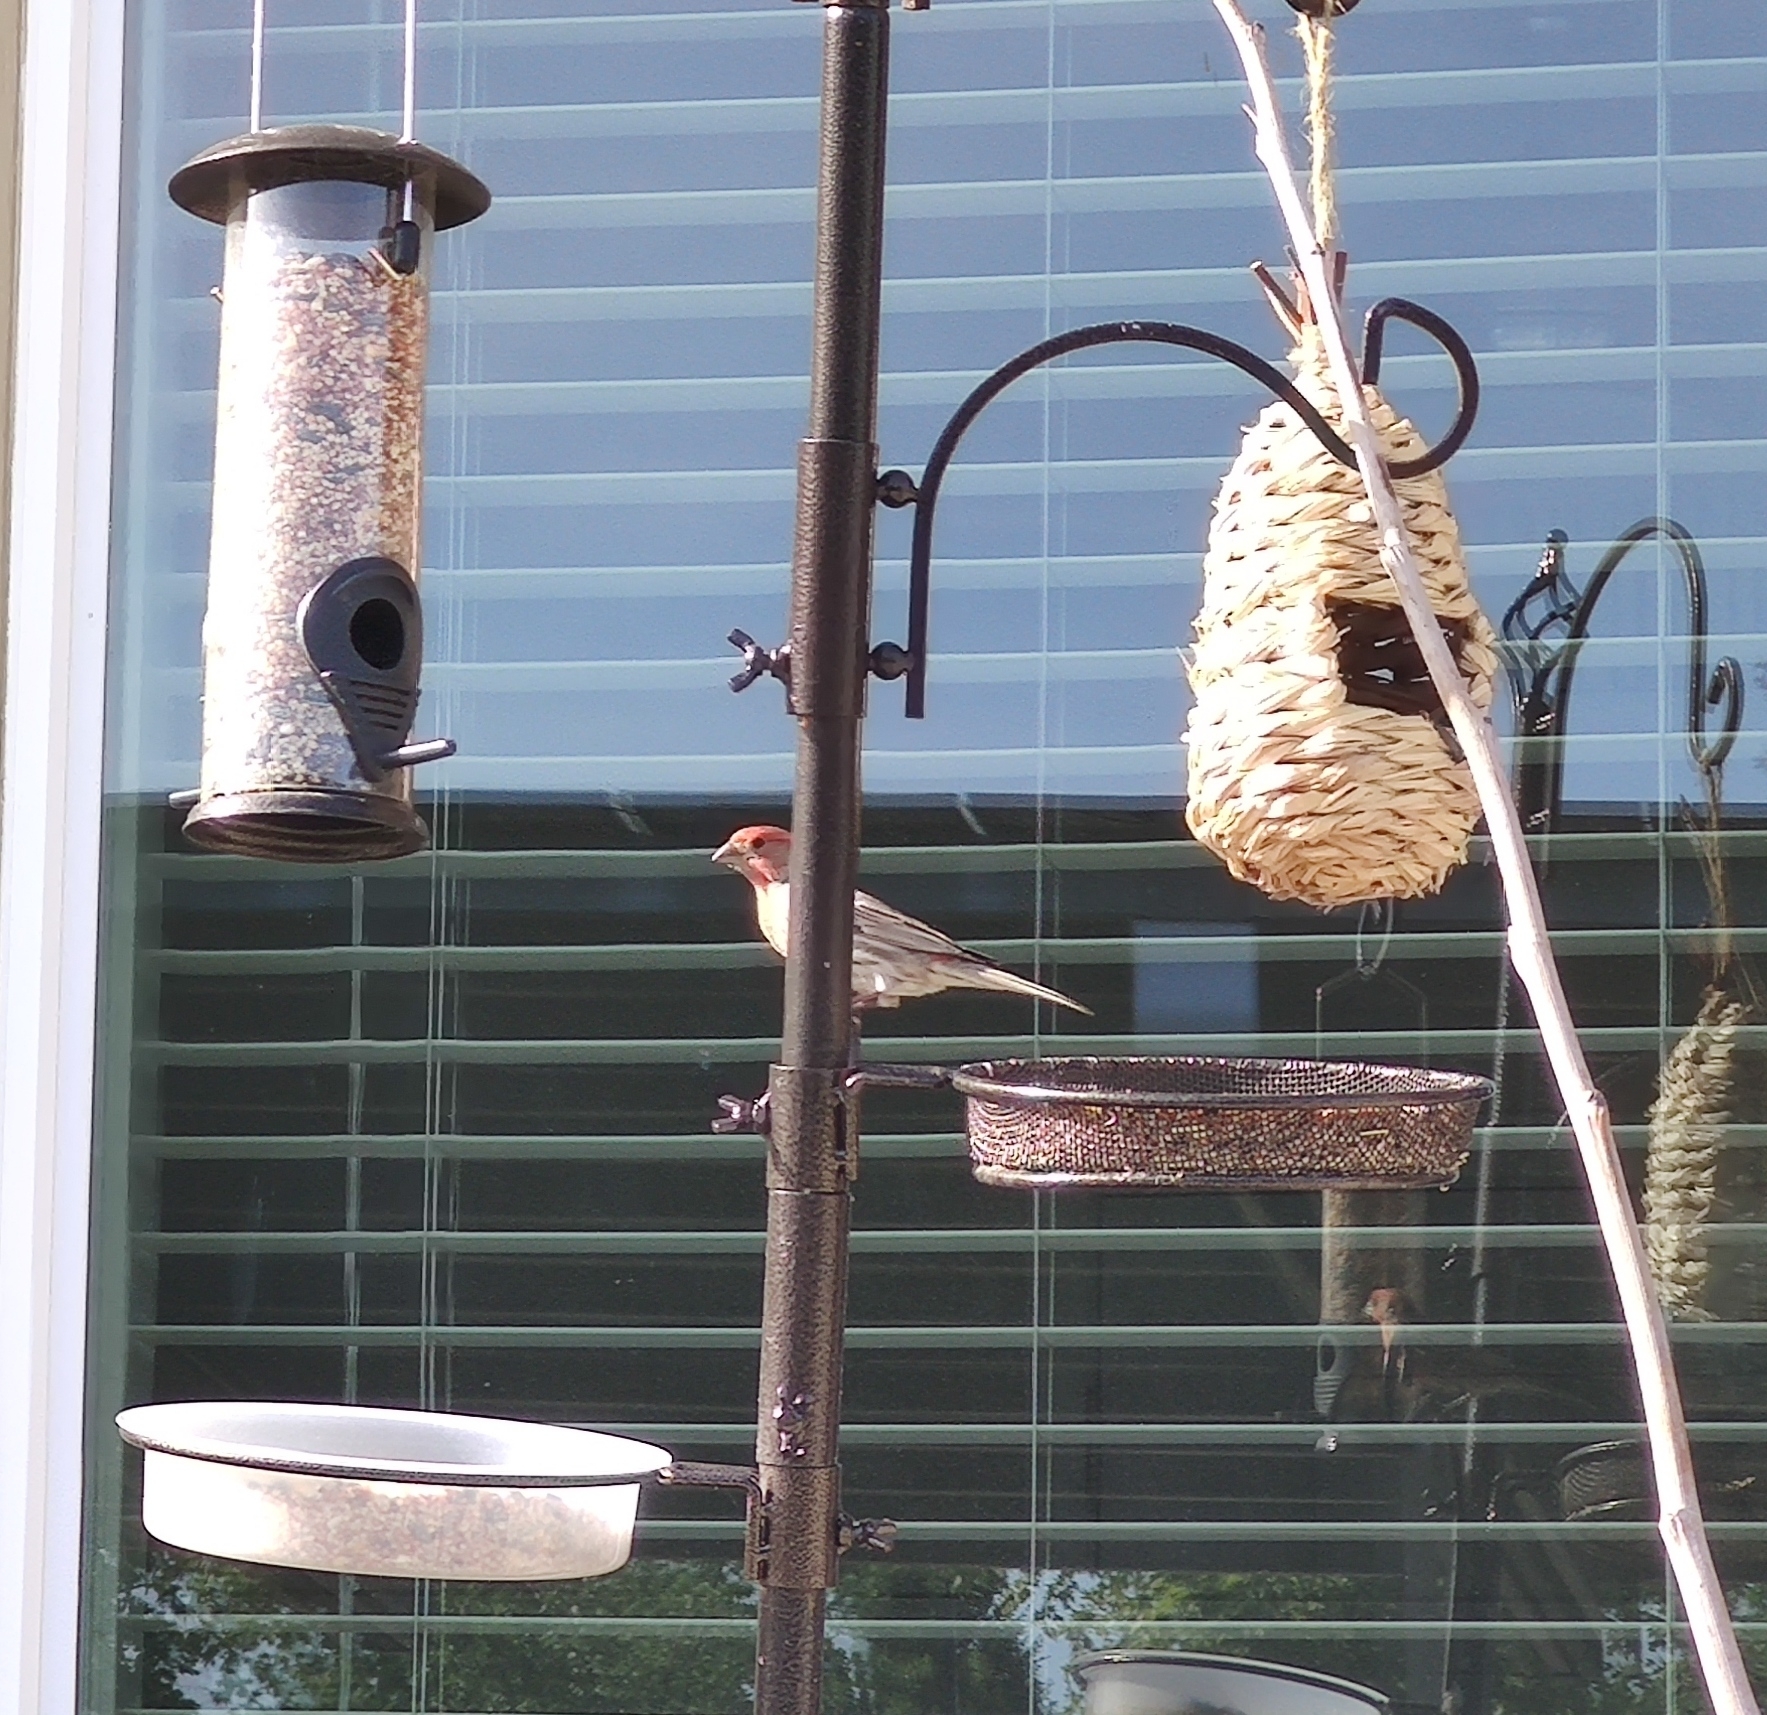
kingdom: Animalia
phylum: Chordata
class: Aves
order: Passeriformes
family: Fringillidae
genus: Haemorhous
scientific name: Haemorhous mexicanus
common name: House finch
